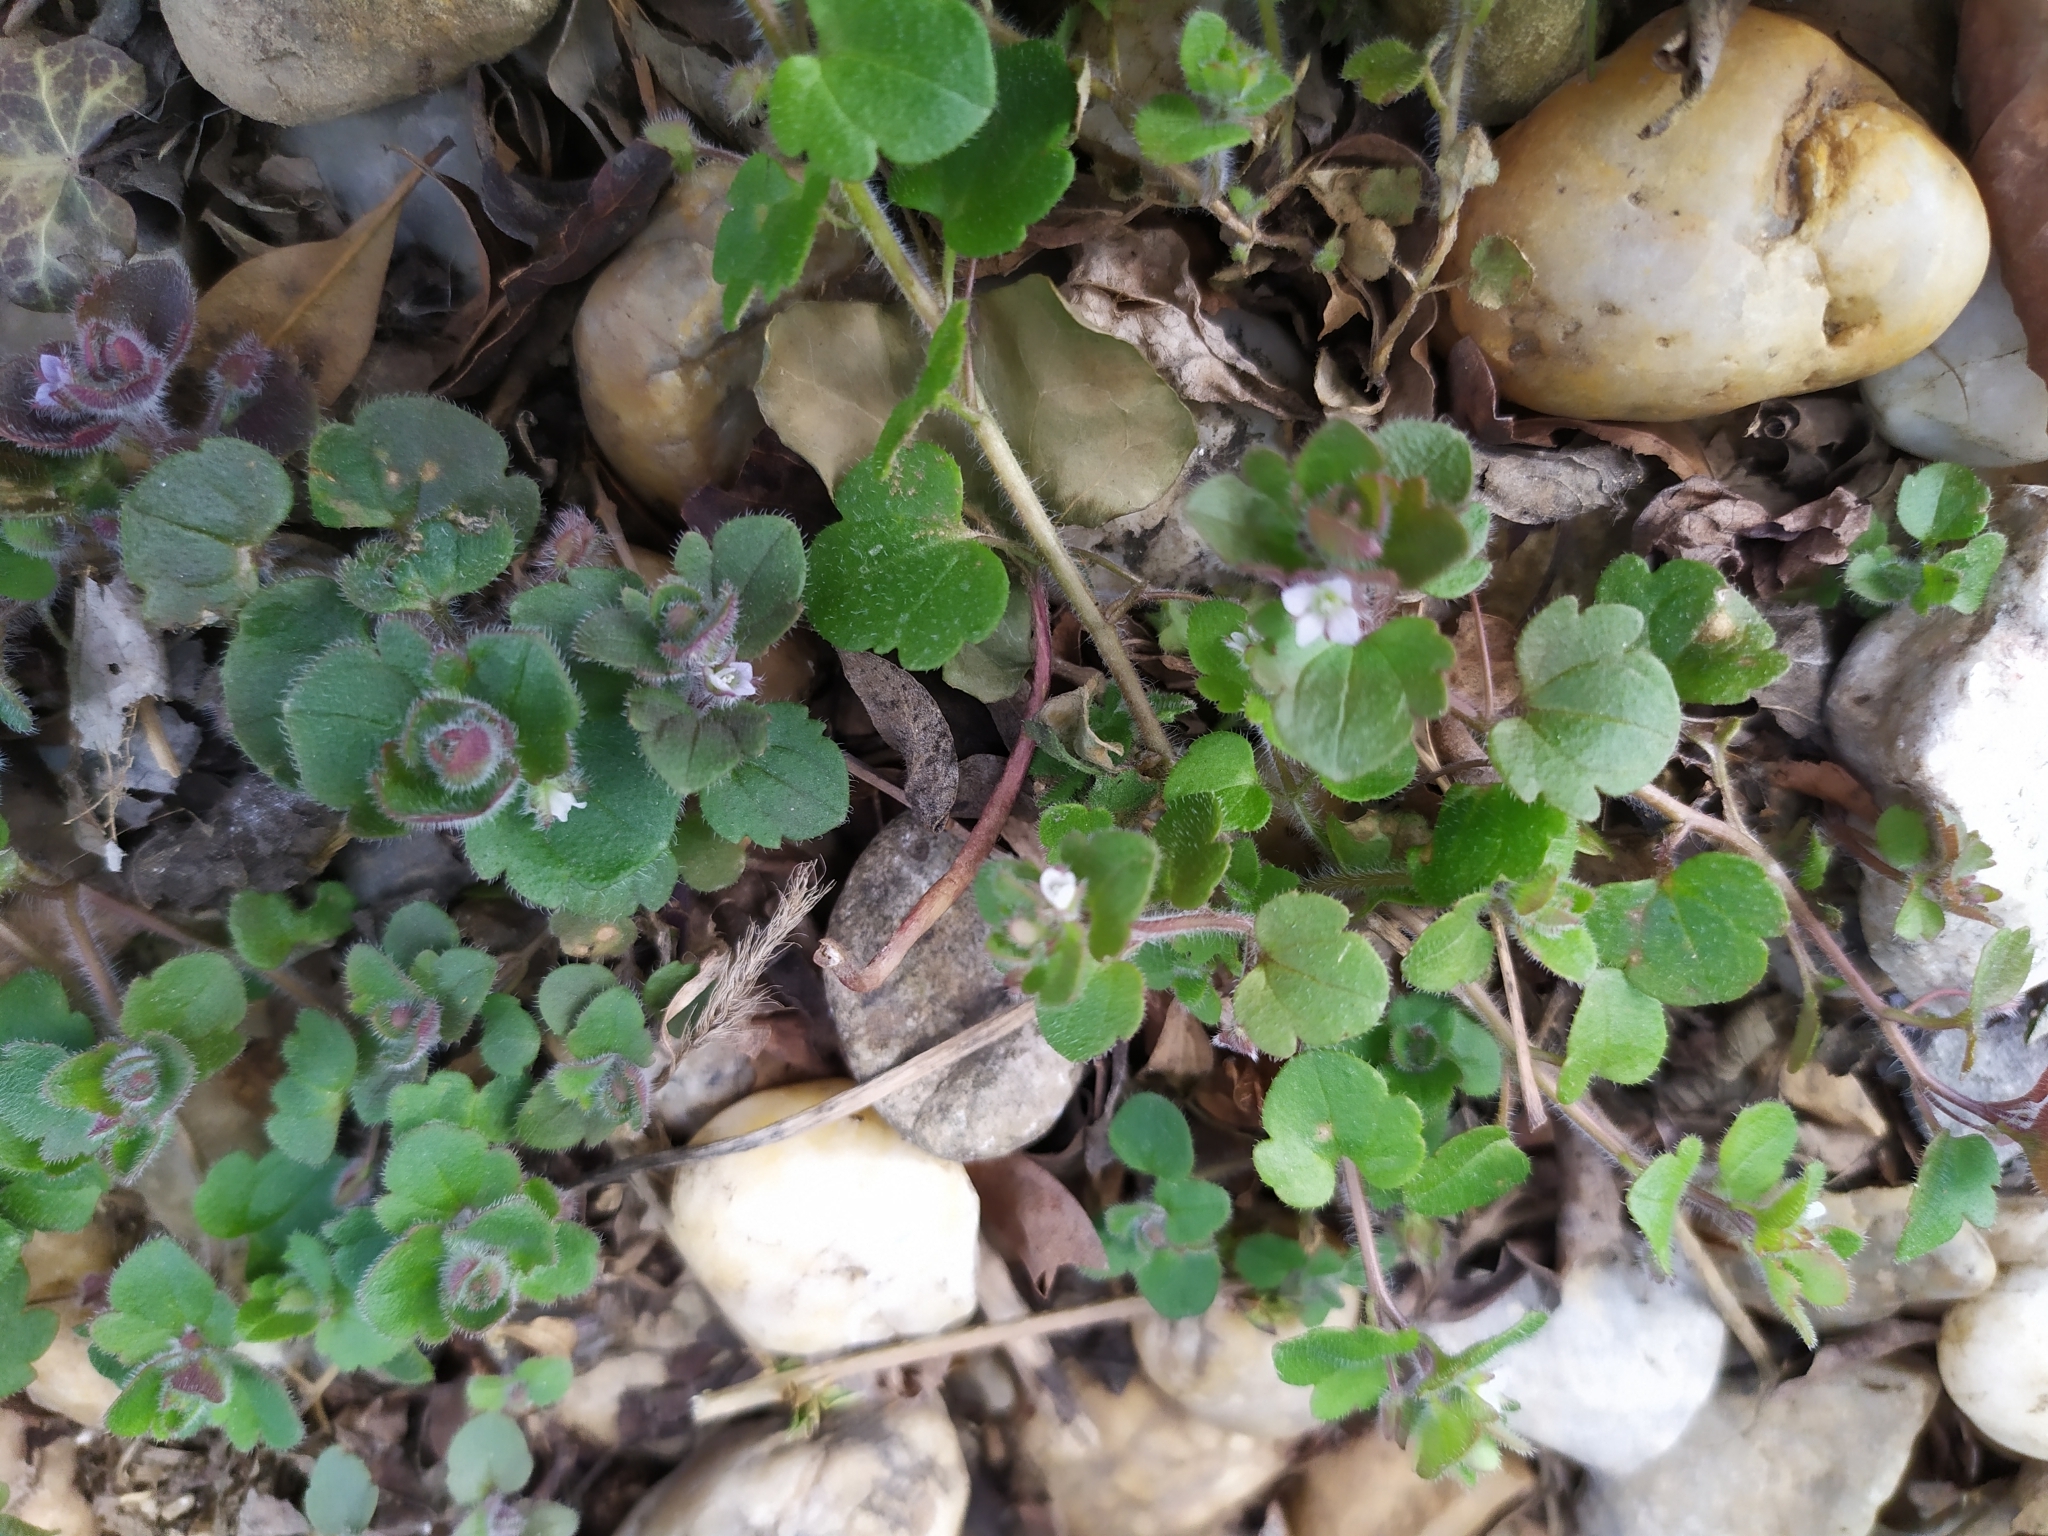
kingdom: Plantae
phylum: Tracheophyta
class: Magnoliopsida
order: Lamiales
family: Plantaginaceae
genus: Veronica
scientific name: Veronica sublobata
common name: False ivy-leaved speedwell
